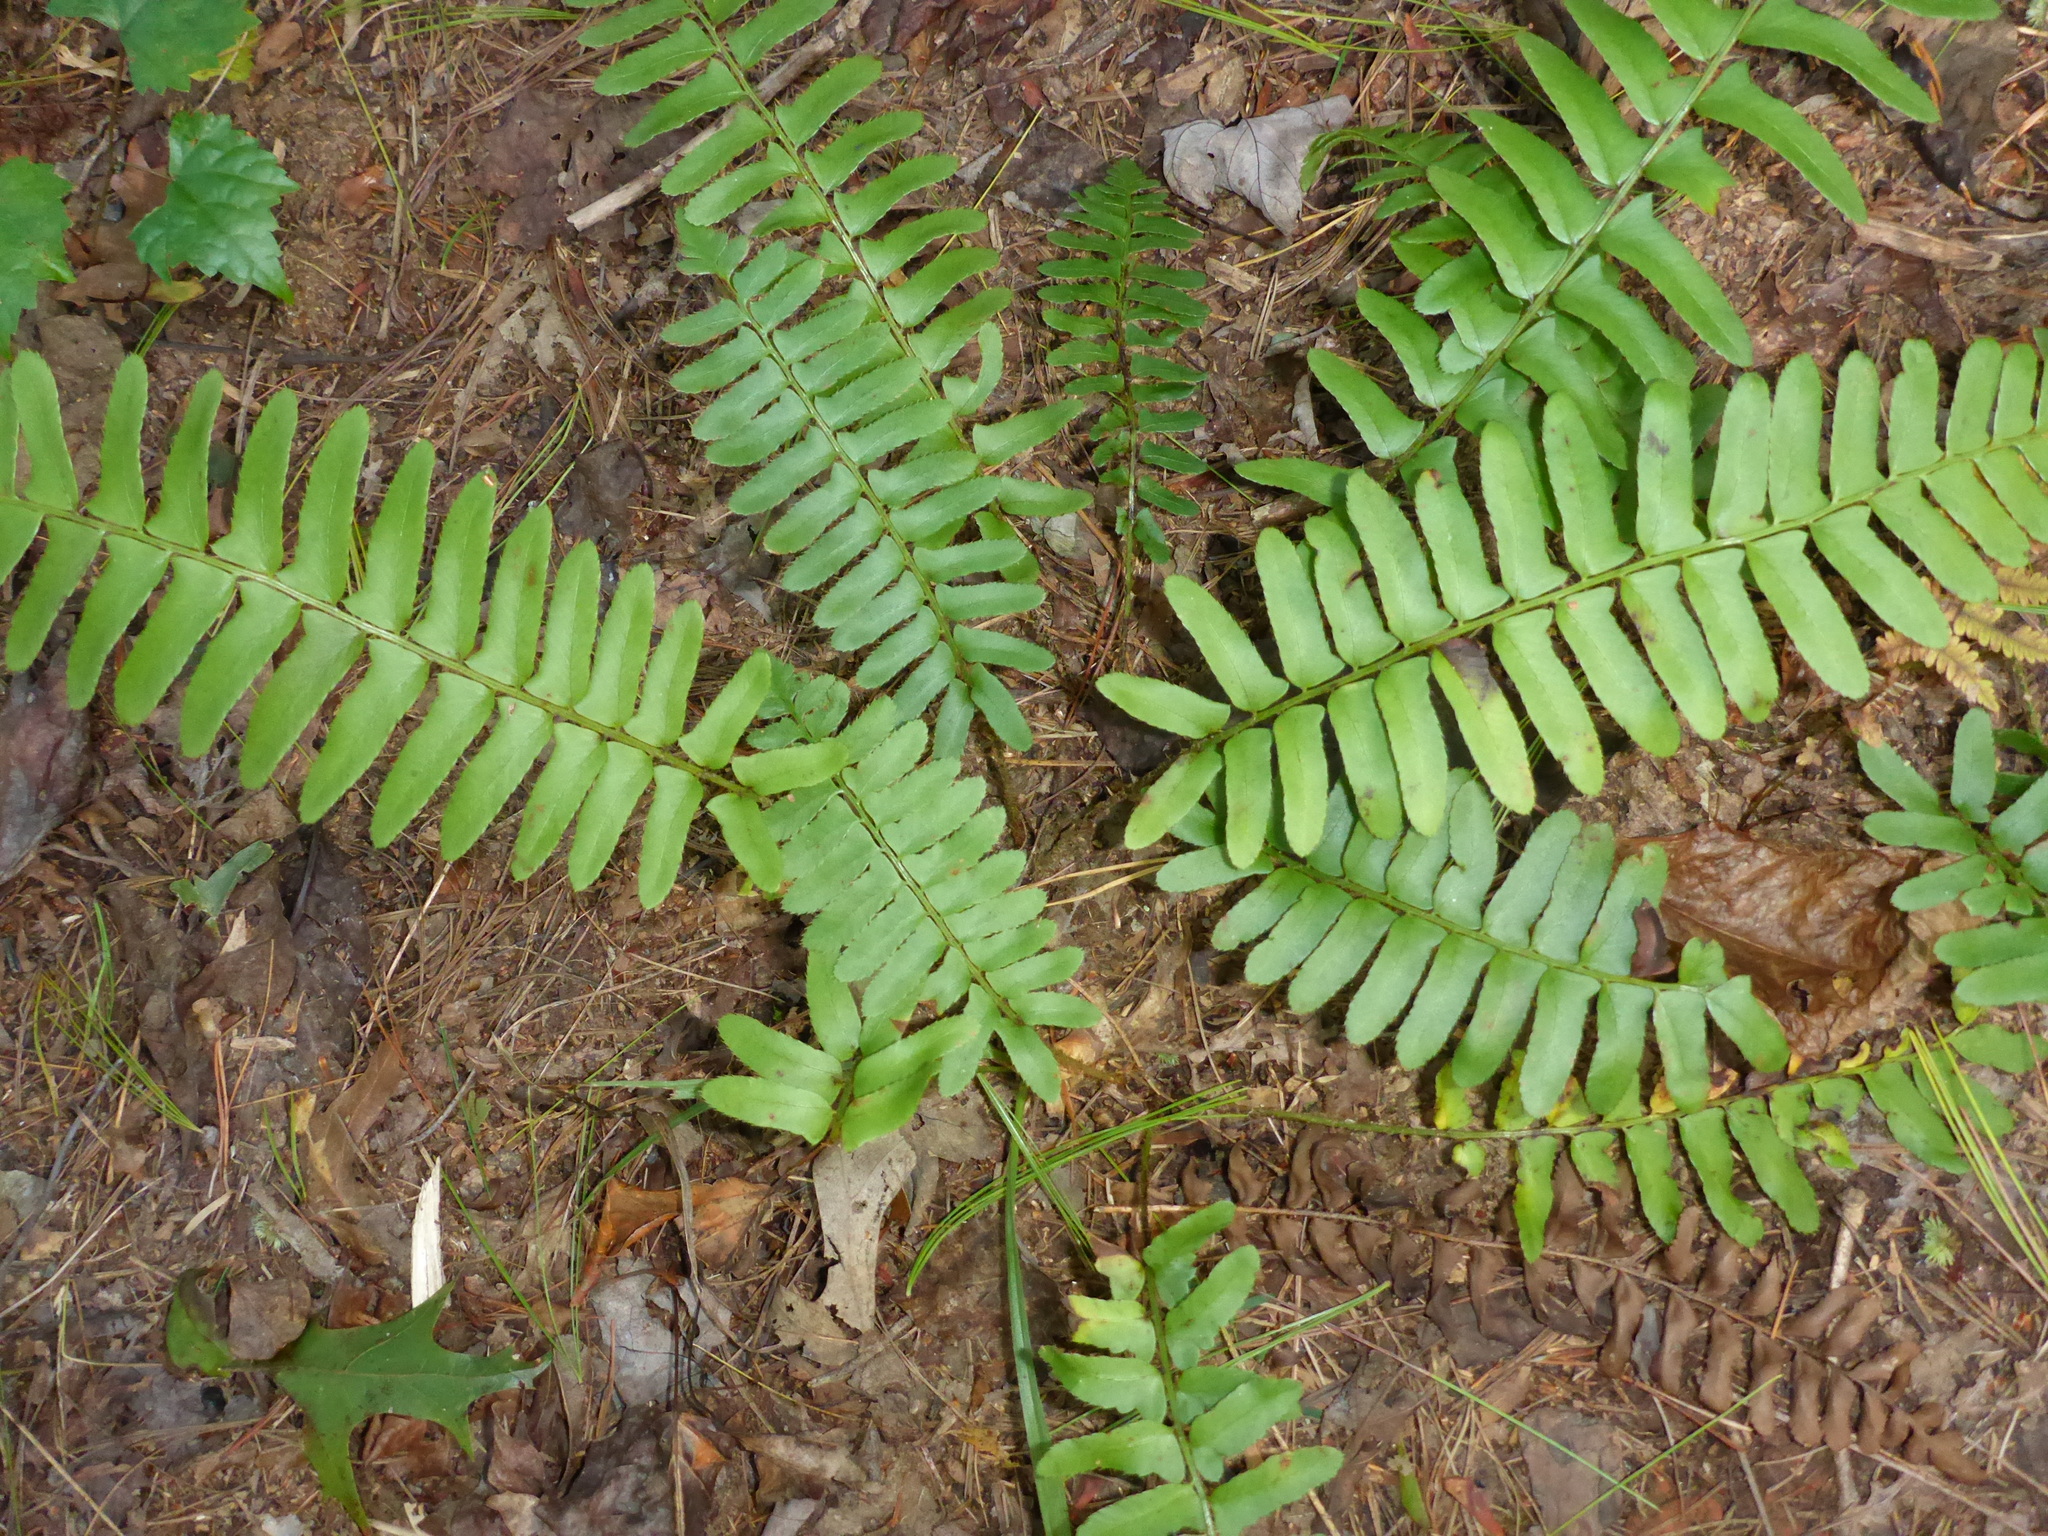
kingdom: Plantae
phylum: Tracheophyta
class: Polypodiopsida
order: Polypodiales
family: Dryopteridaceae
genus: Polystichum
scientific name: Polystichum acrostichoides
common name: Christmas fern
